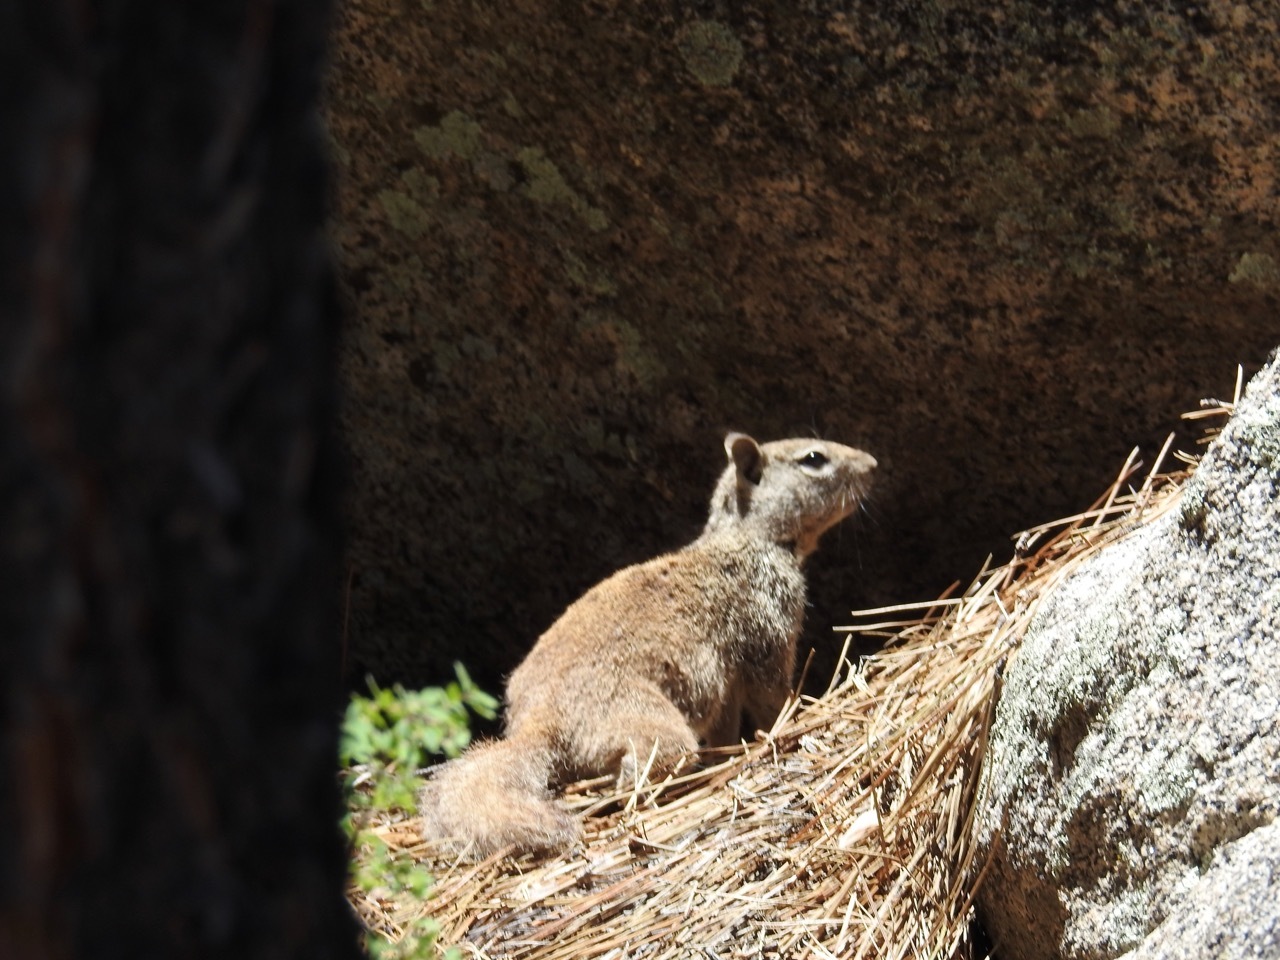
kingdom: Animalia
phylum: Chordata
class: Mammalia
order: Rodentia
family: Sciuridae
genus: Otospermophilus
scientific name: Otospermophilus beecheyi
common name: California ground squirrel
